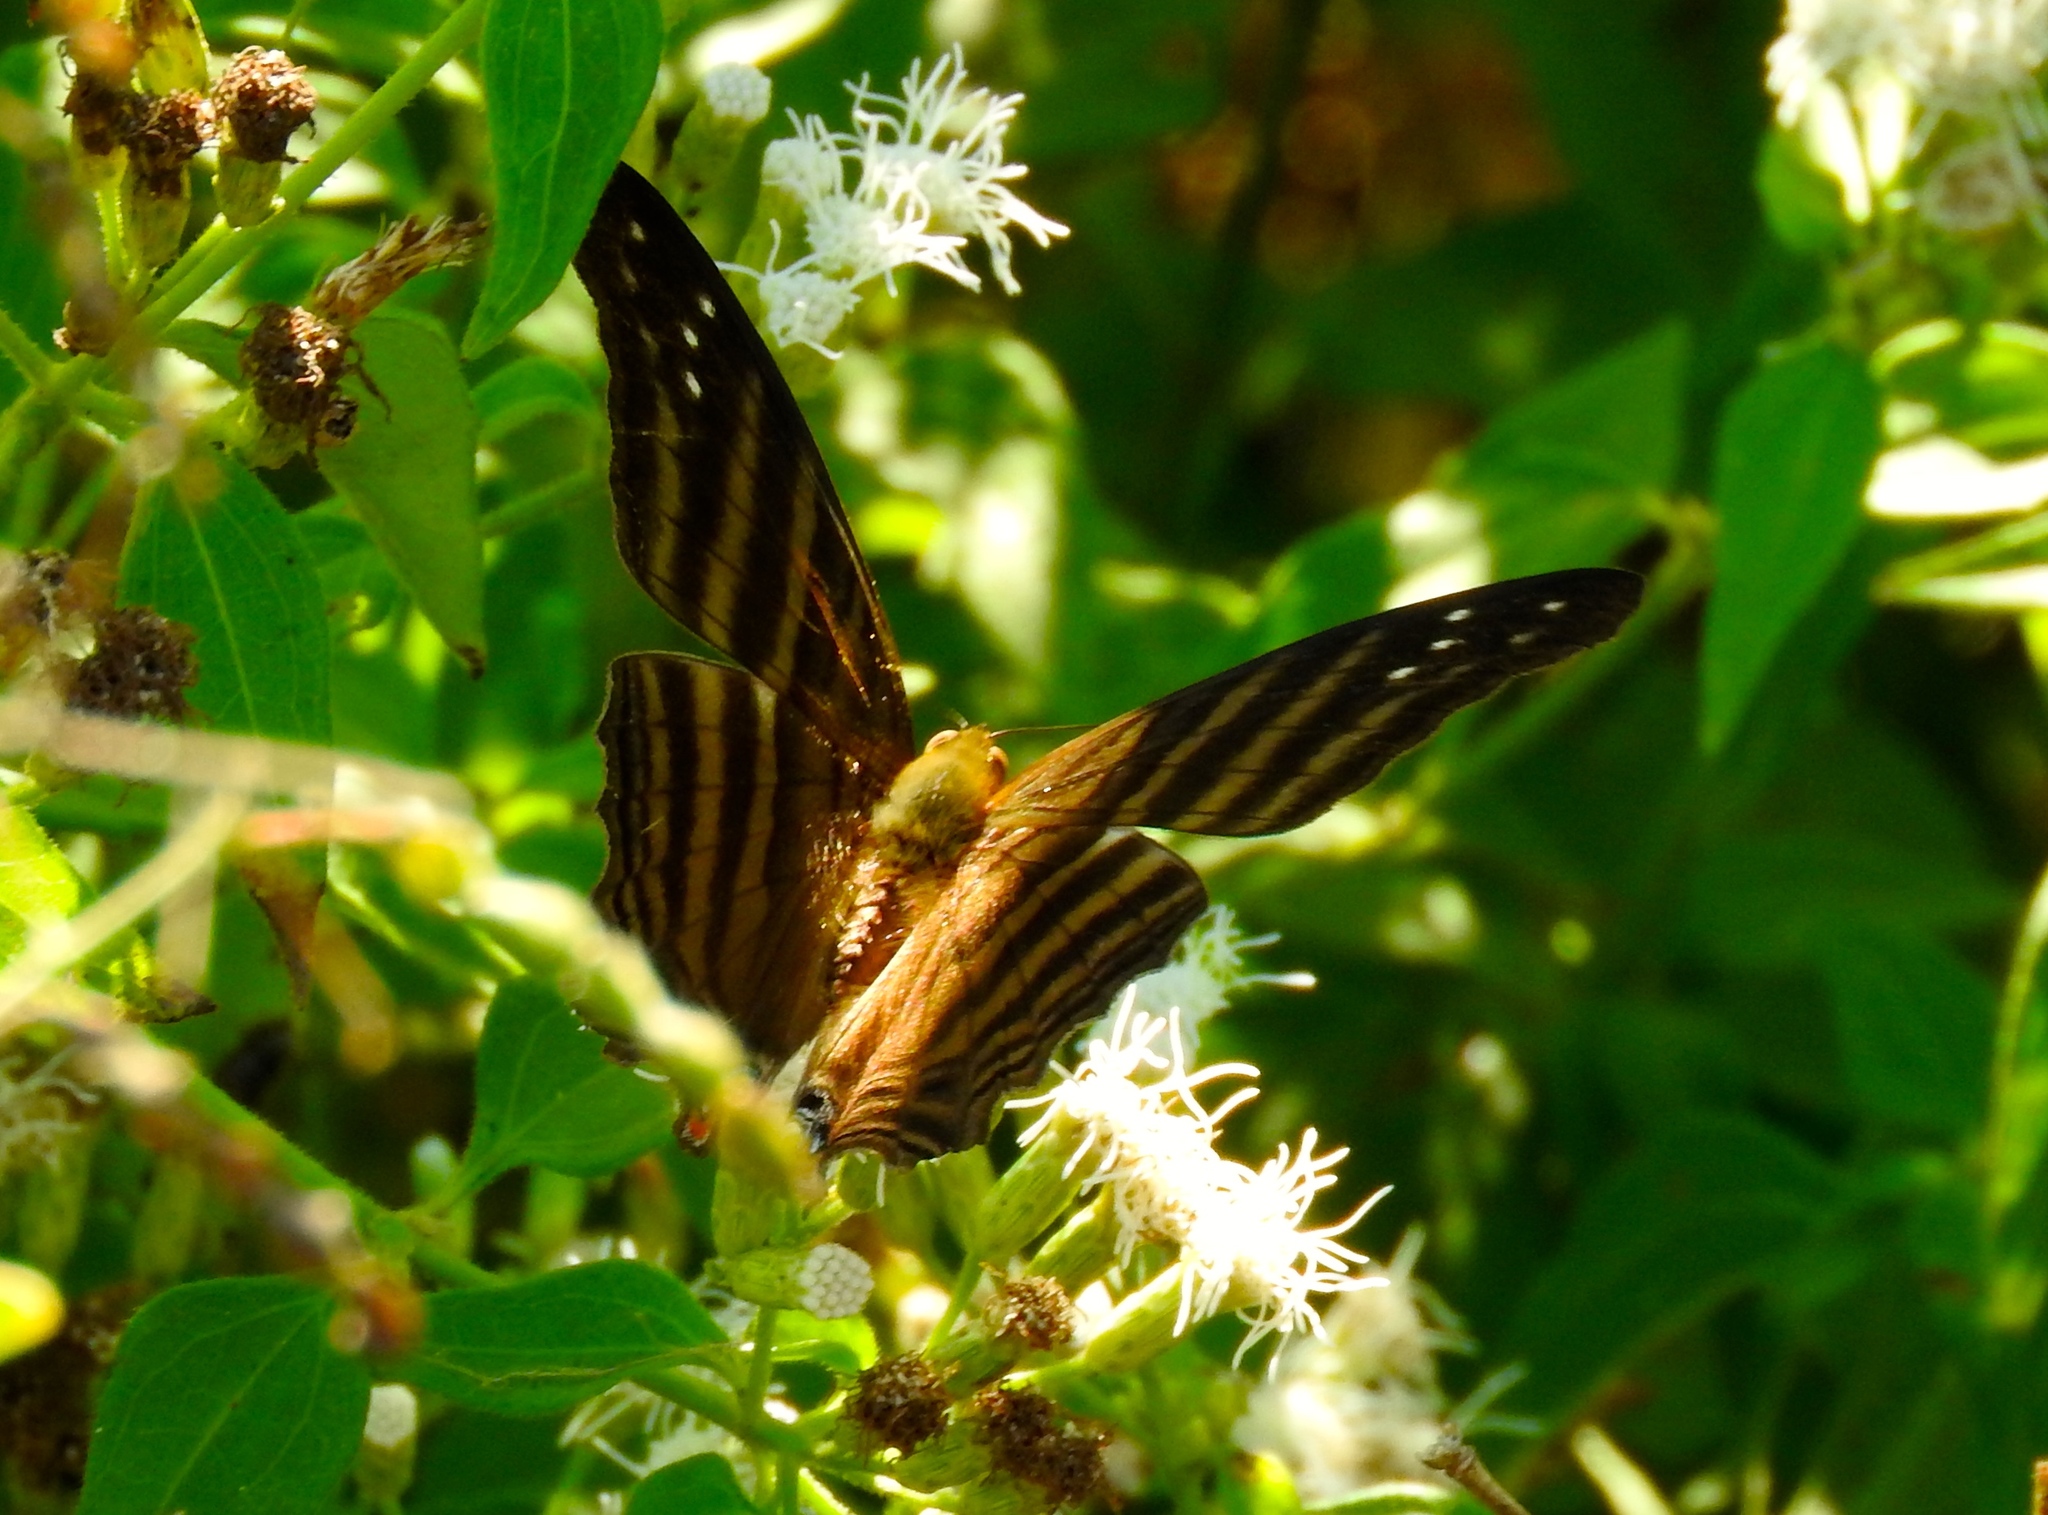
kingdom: Animalia
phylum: Arthropoda
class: Insecta
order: Lepidoptera
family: Nymphalidae
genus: Marpesia
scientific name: Marpesia chiron
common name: Many-banded daggerwing
